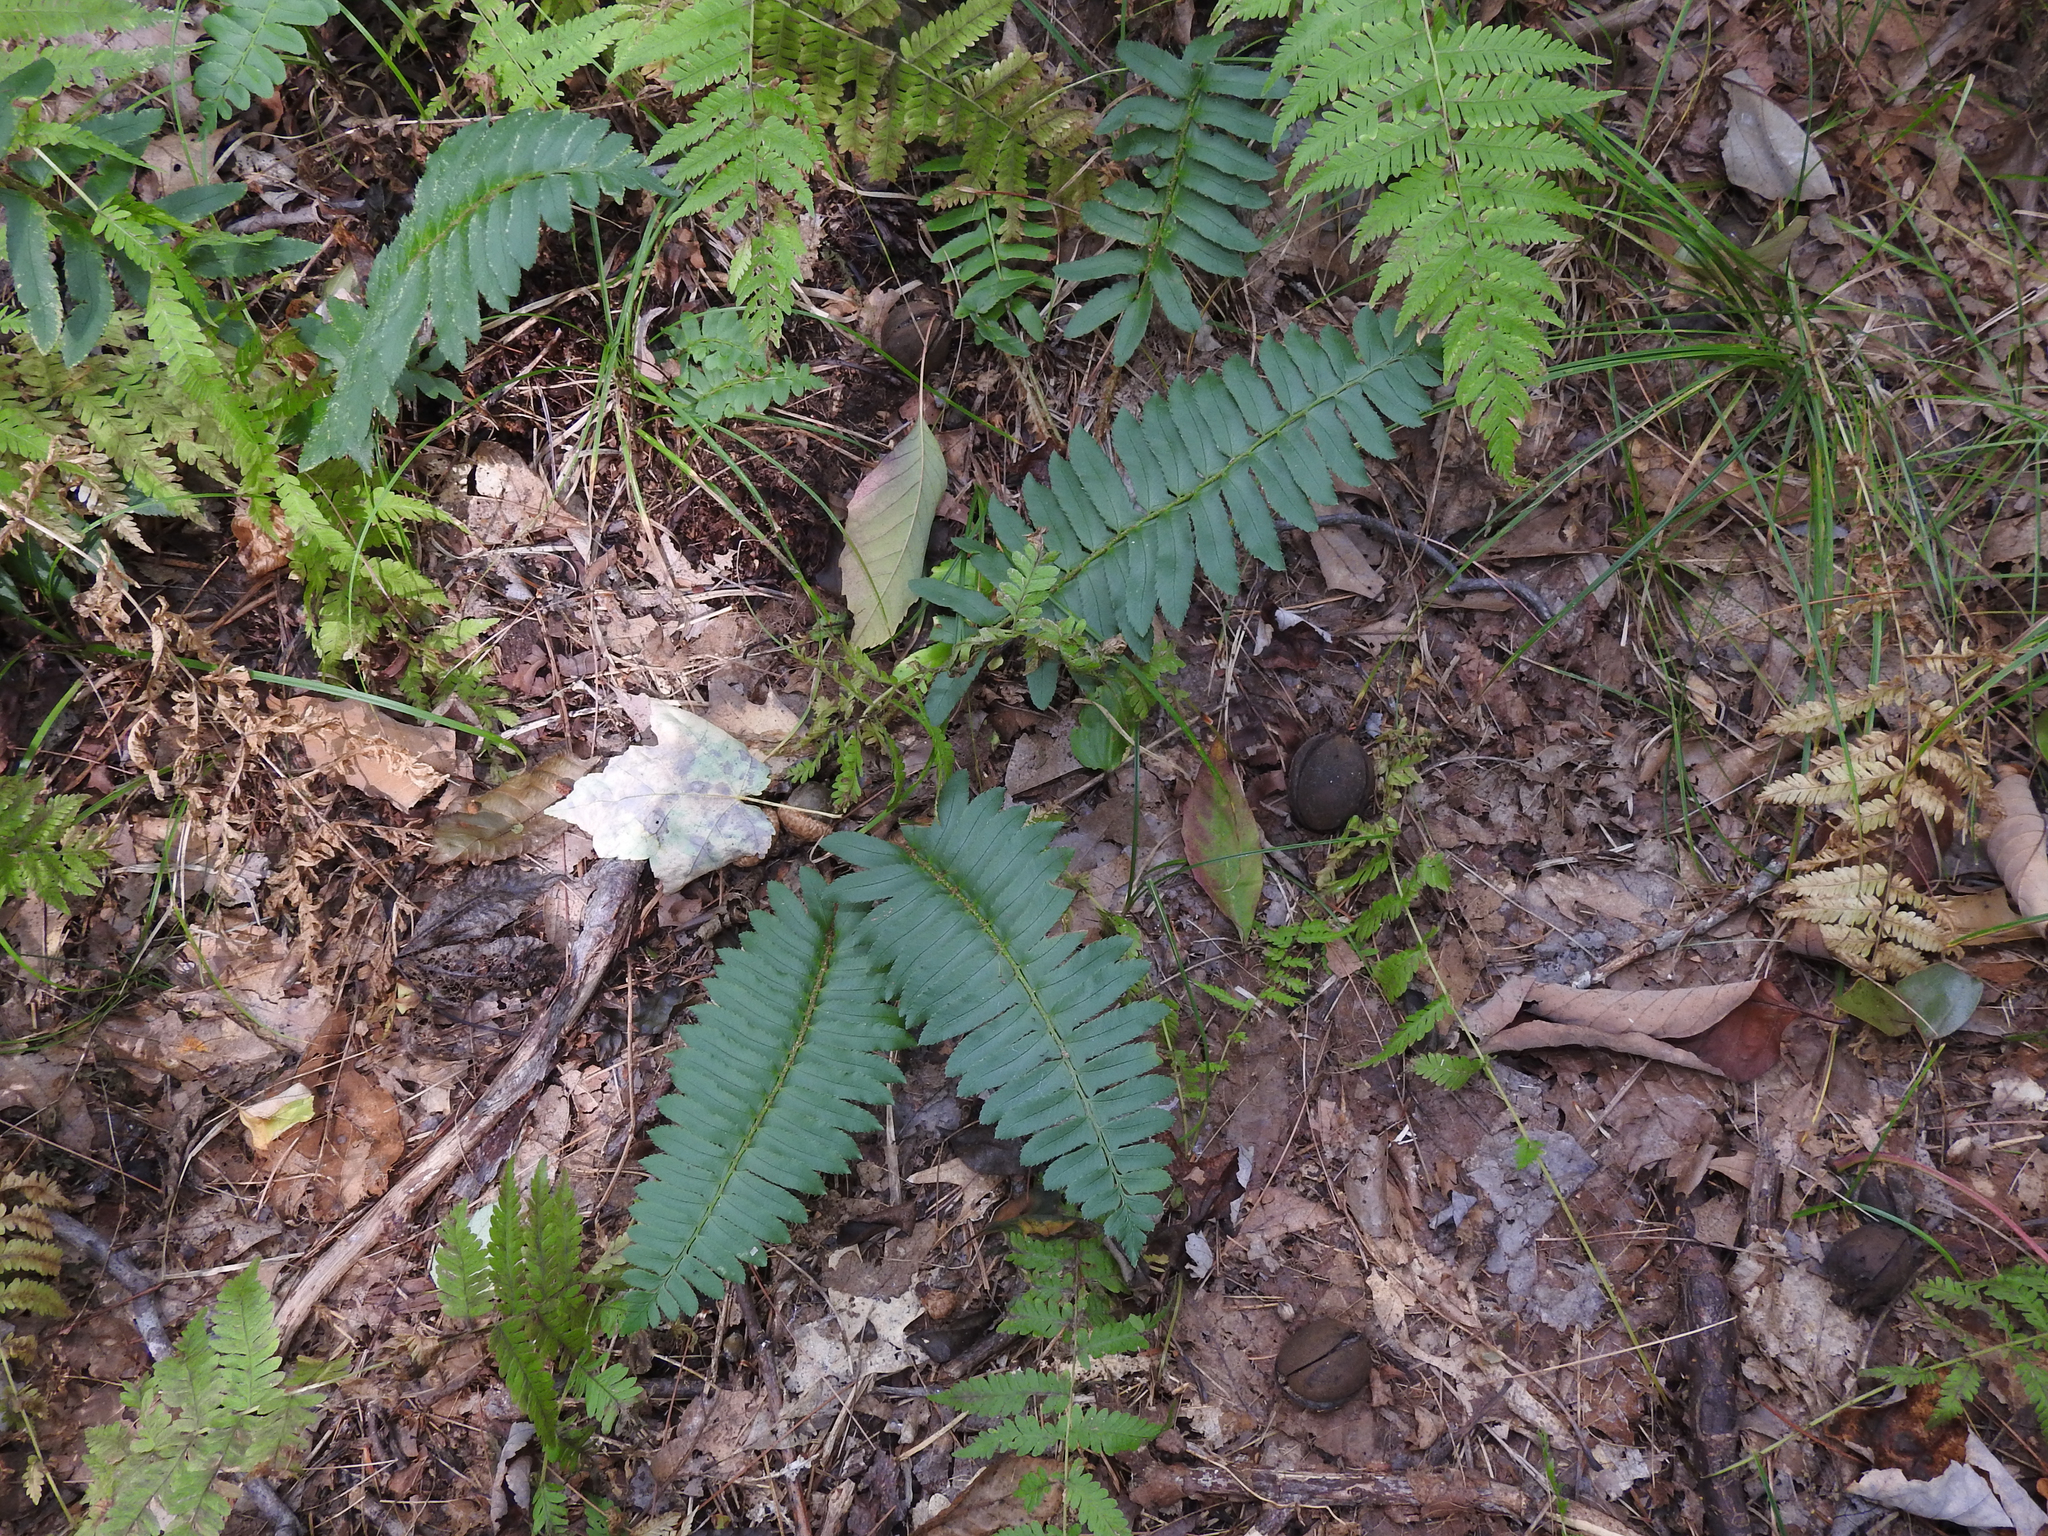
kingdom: Plantae
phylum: Tracheophyta
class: Polypodiopsida
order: Polypodiales
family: Dryopteridaceae
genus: Polystichum
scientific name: Polystichum acrostichoides
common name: Christmas fern
